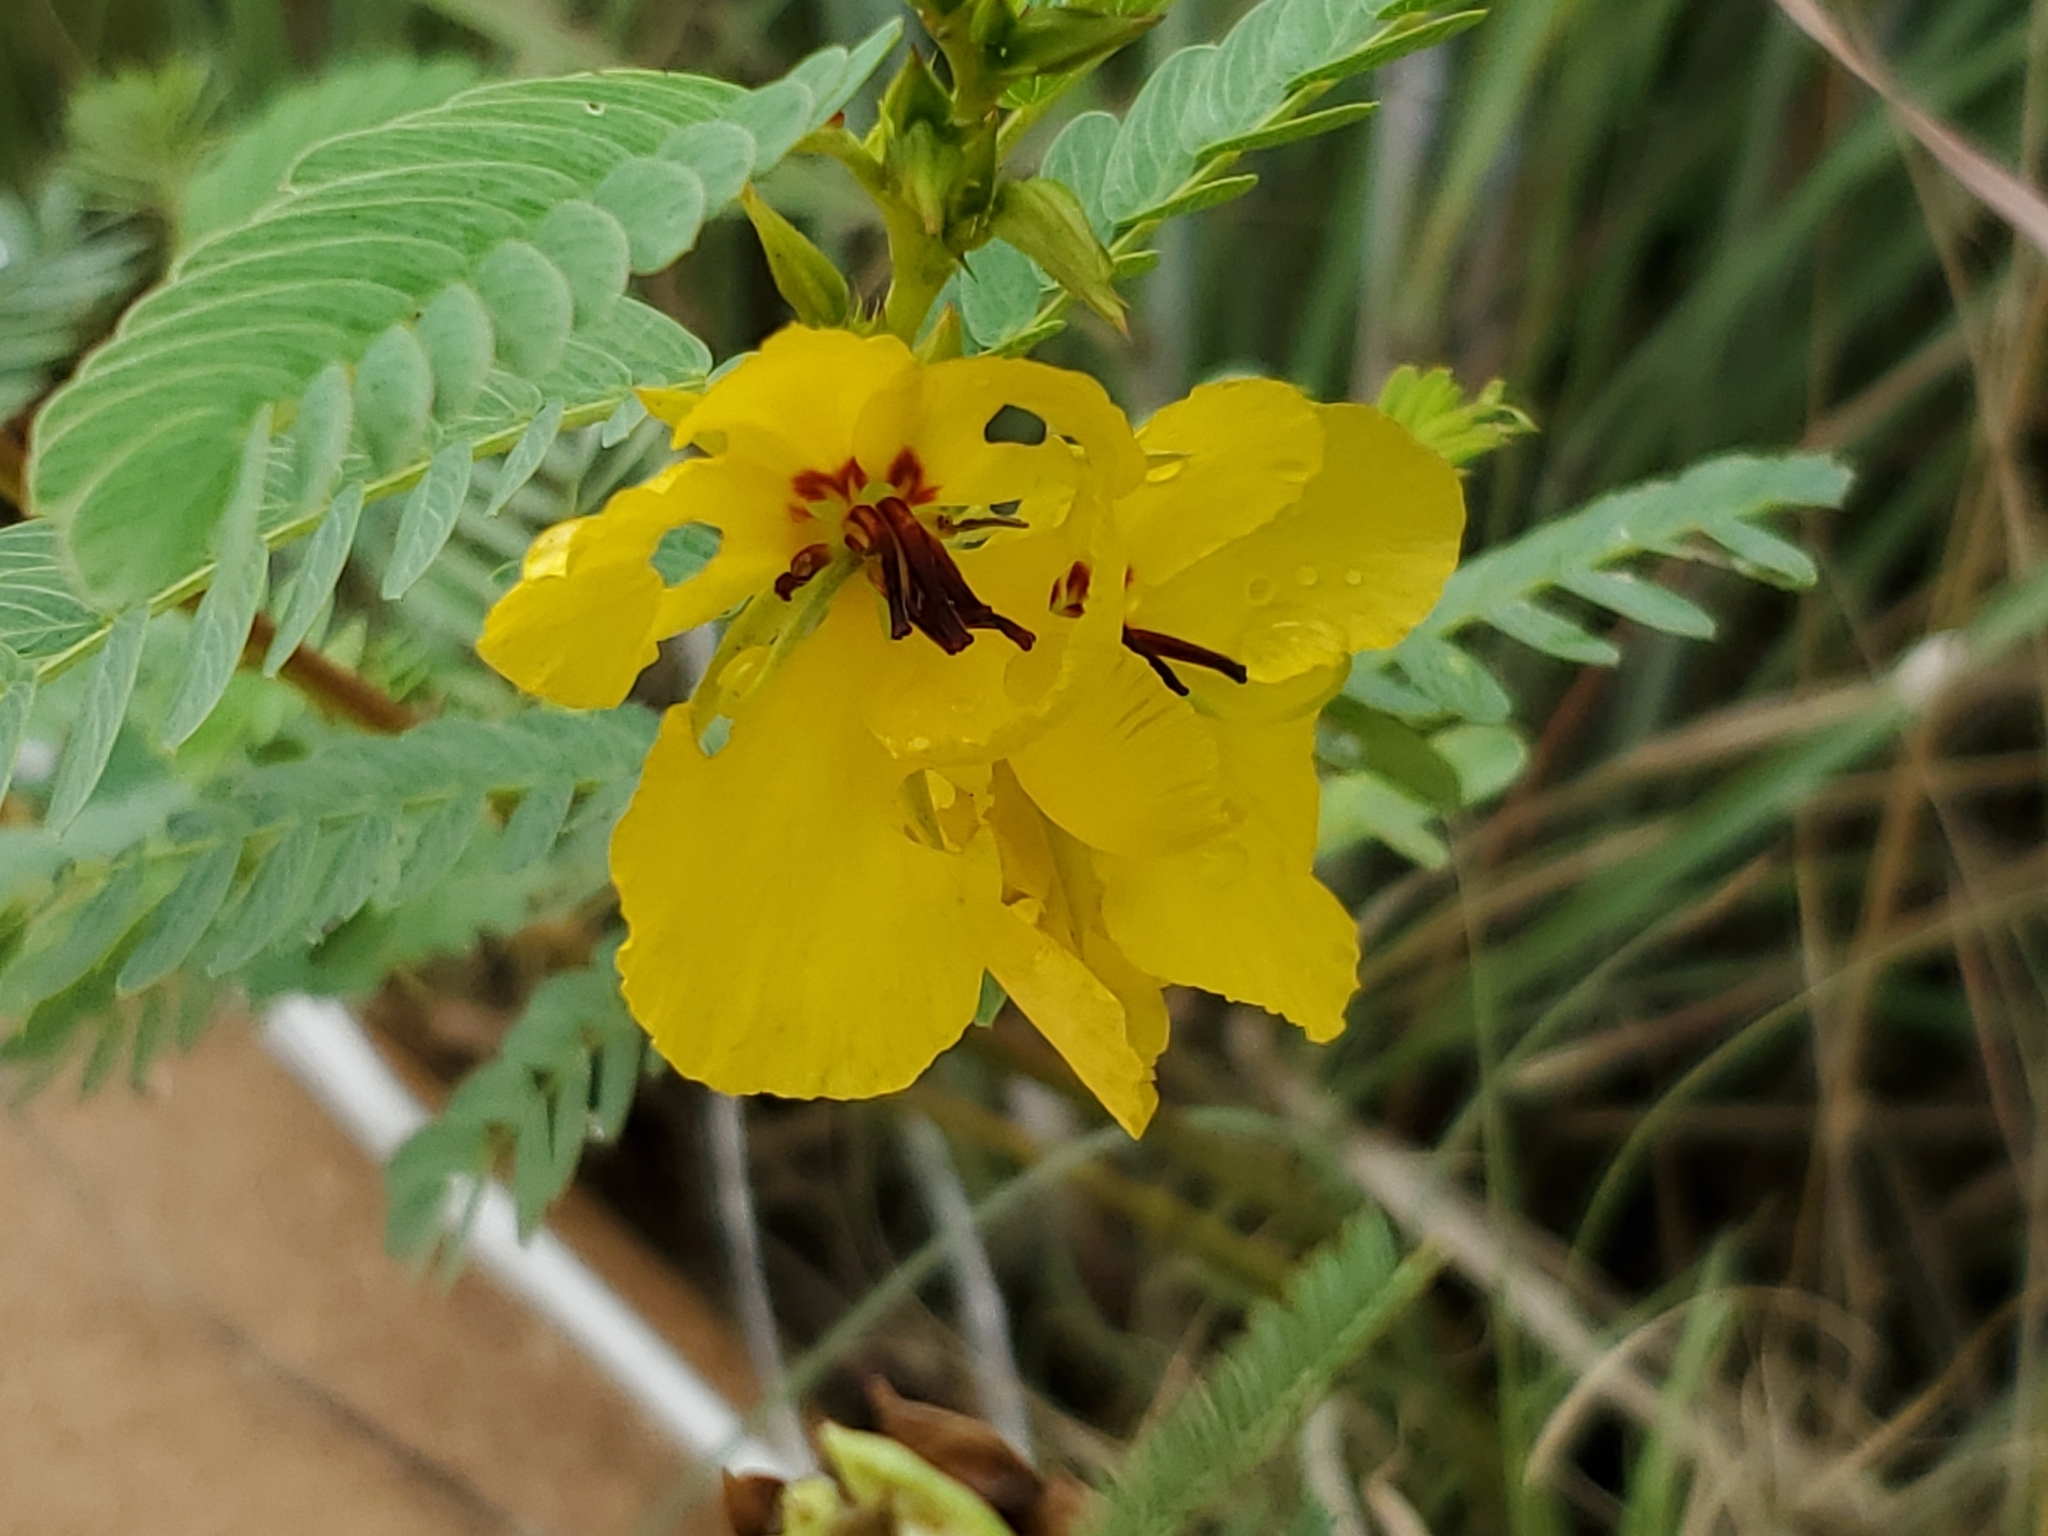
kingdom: Plantae
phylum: Tracheophyta
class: Magnoliopsida
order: Fabales
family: Fabaceae
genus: Chamaecrista
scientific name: Chamaecrista fasciculata
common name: Golden cassia
